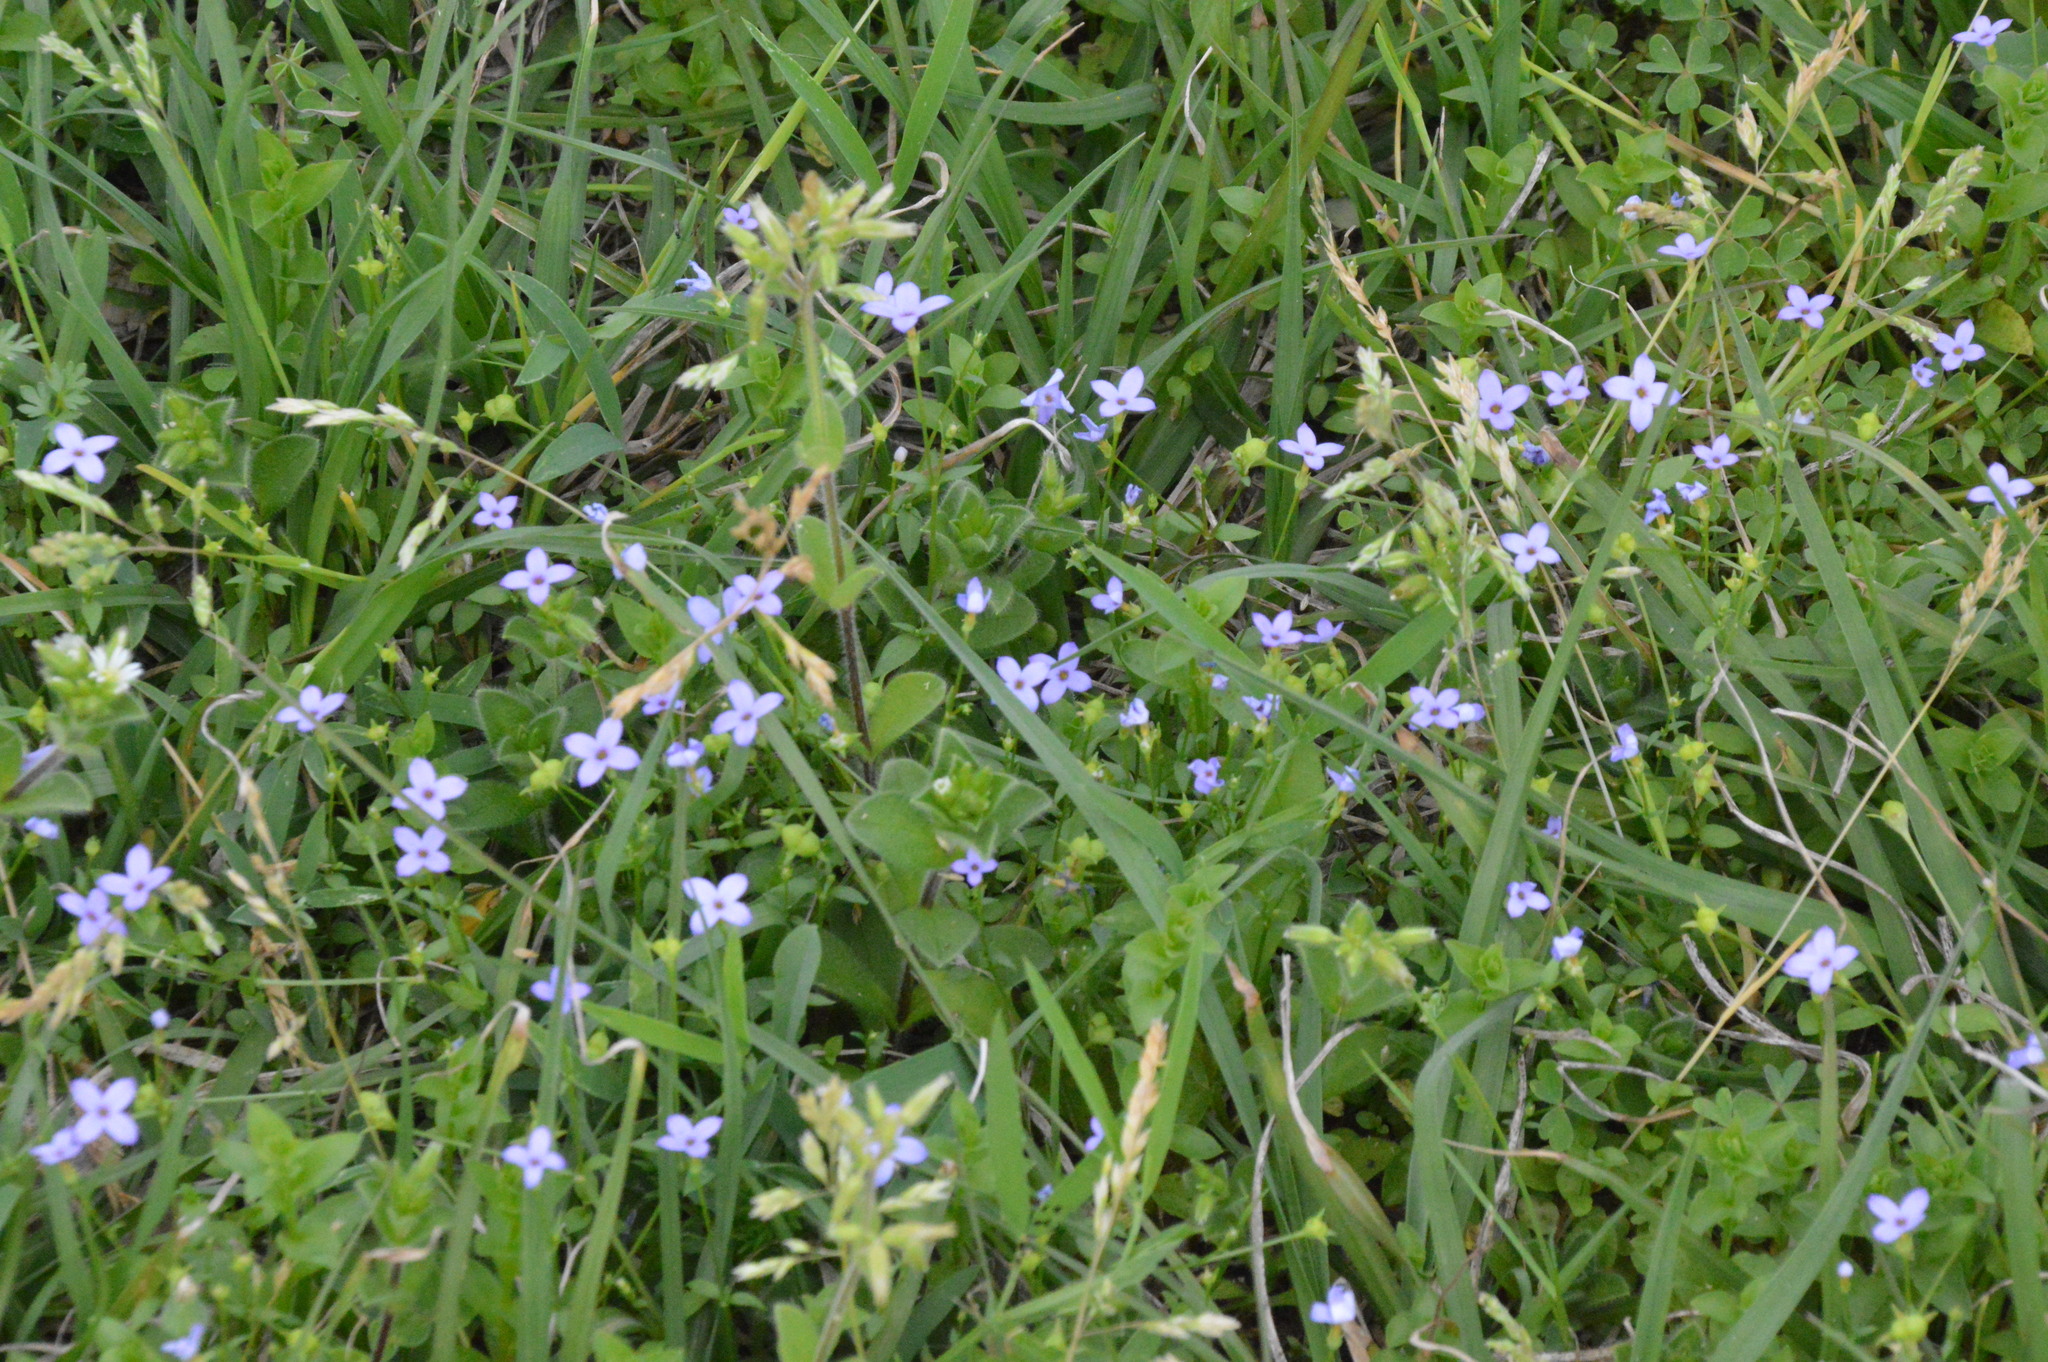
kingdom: Plantae
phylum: Tracheophyta
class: Magnoliopsida
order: Gentianales
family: Rubiaceae
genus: Houstonia
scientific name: Houstonia pusilla
